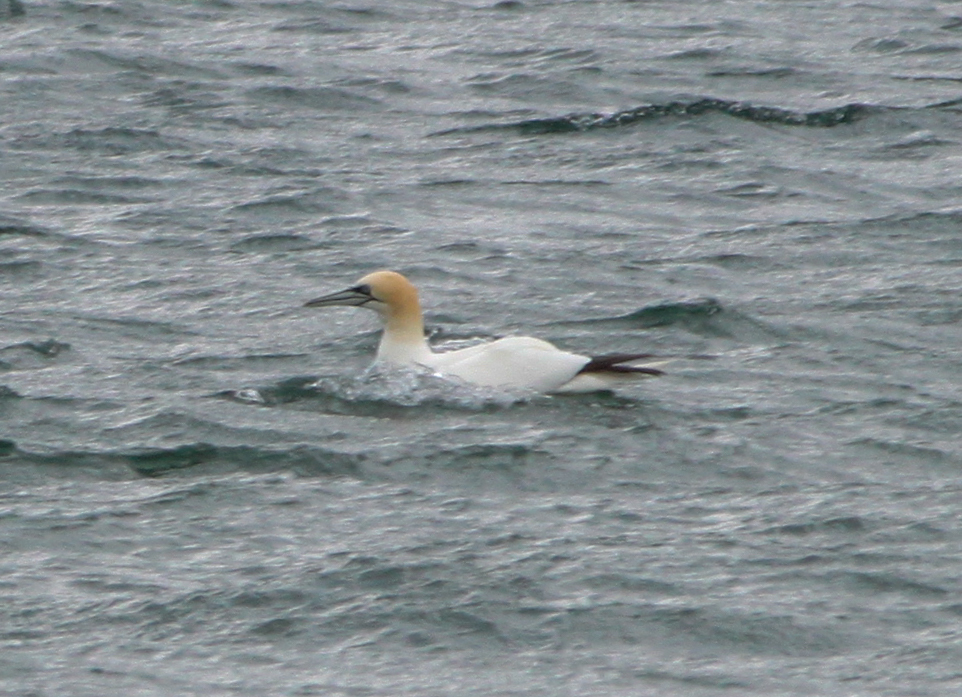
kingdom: Animalia
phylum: Chordata
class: Aves
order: Suliformes
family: Sulidae
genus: Morus
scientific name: Morus bassanus
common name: Northern gannet
